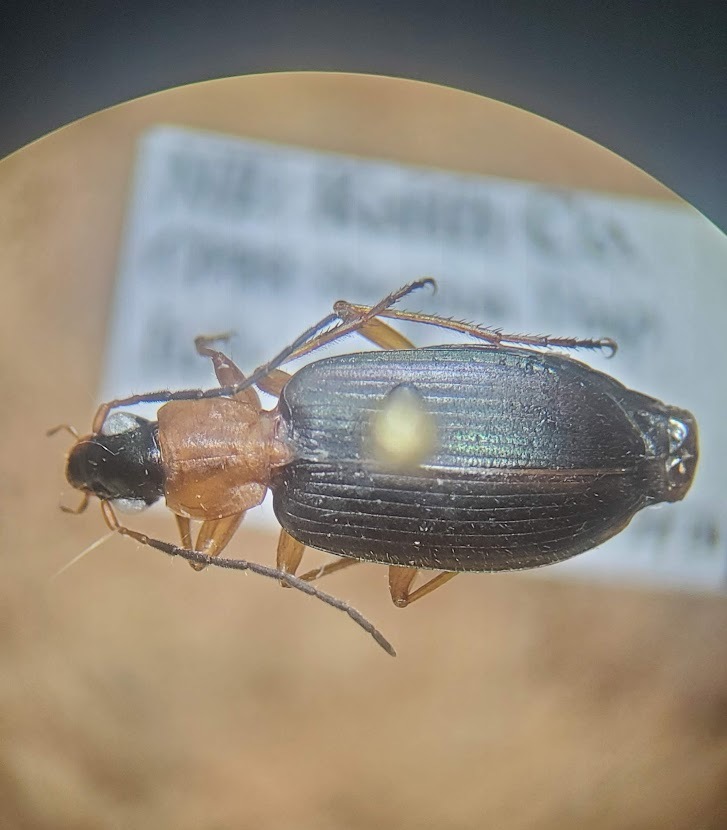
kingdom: Animalia
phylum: Arthropoda
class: Insecta
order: Coleoptera
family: Carabidae
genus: Agonum
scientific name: Agonum decorum
